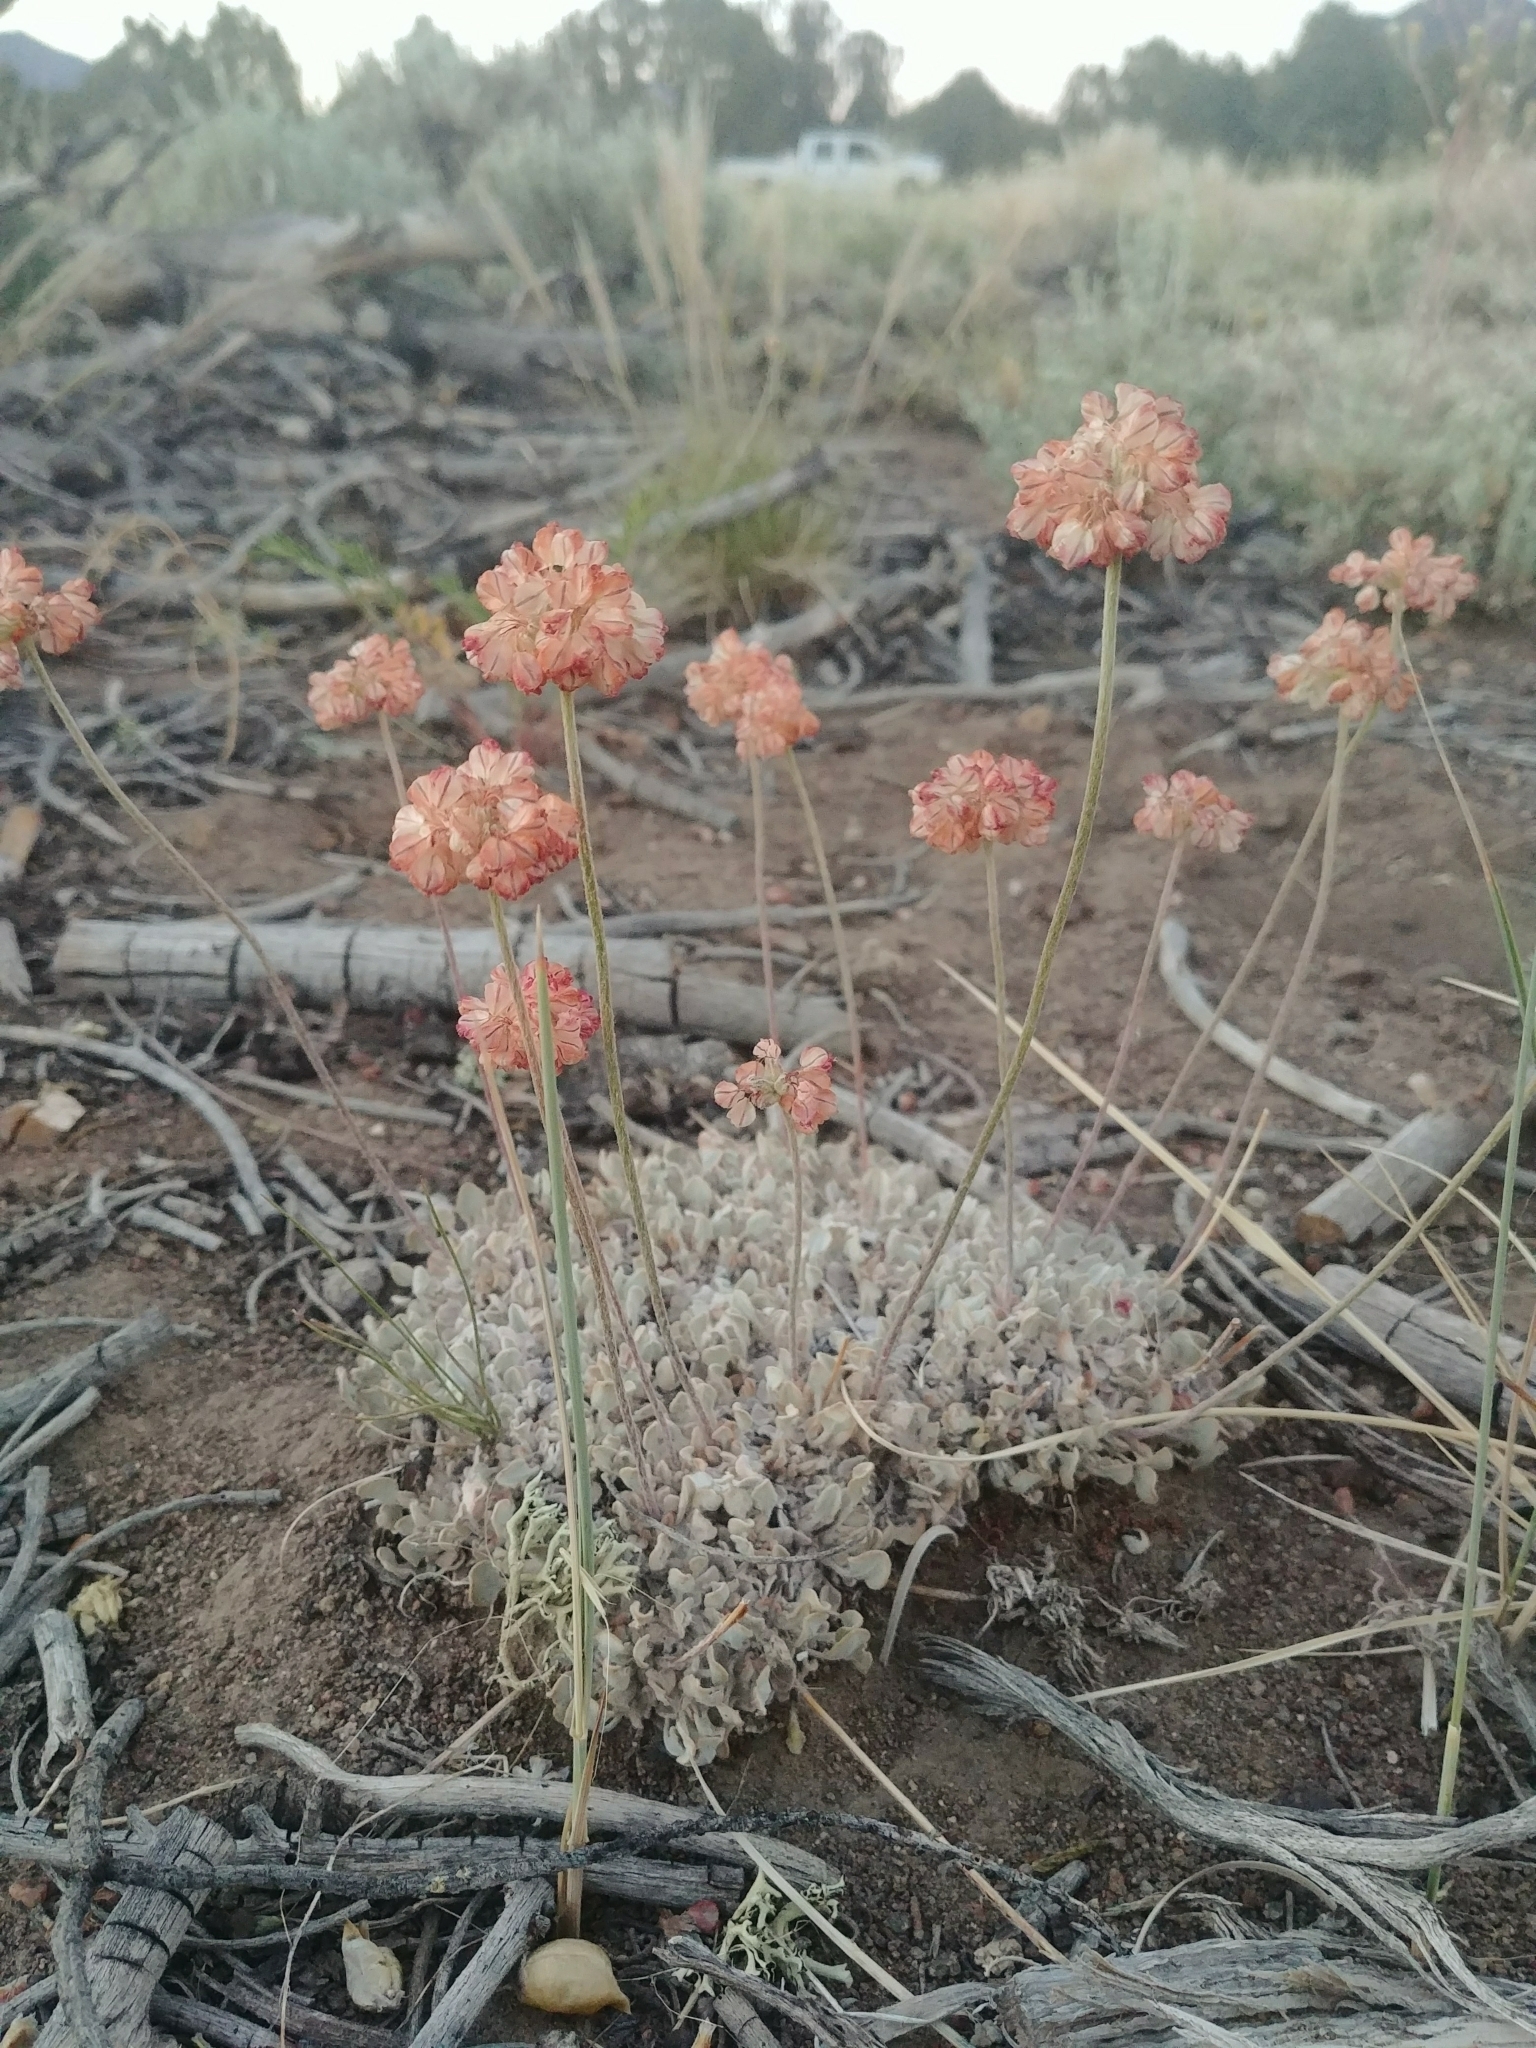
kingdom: Plantae
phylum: Tracheophyta
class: Magnoliopsida
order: Caryophyllales
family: Polygonaceae
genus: Eriogonum
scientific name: Eriogonum ovalifolium
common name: Cushion buckwheat
